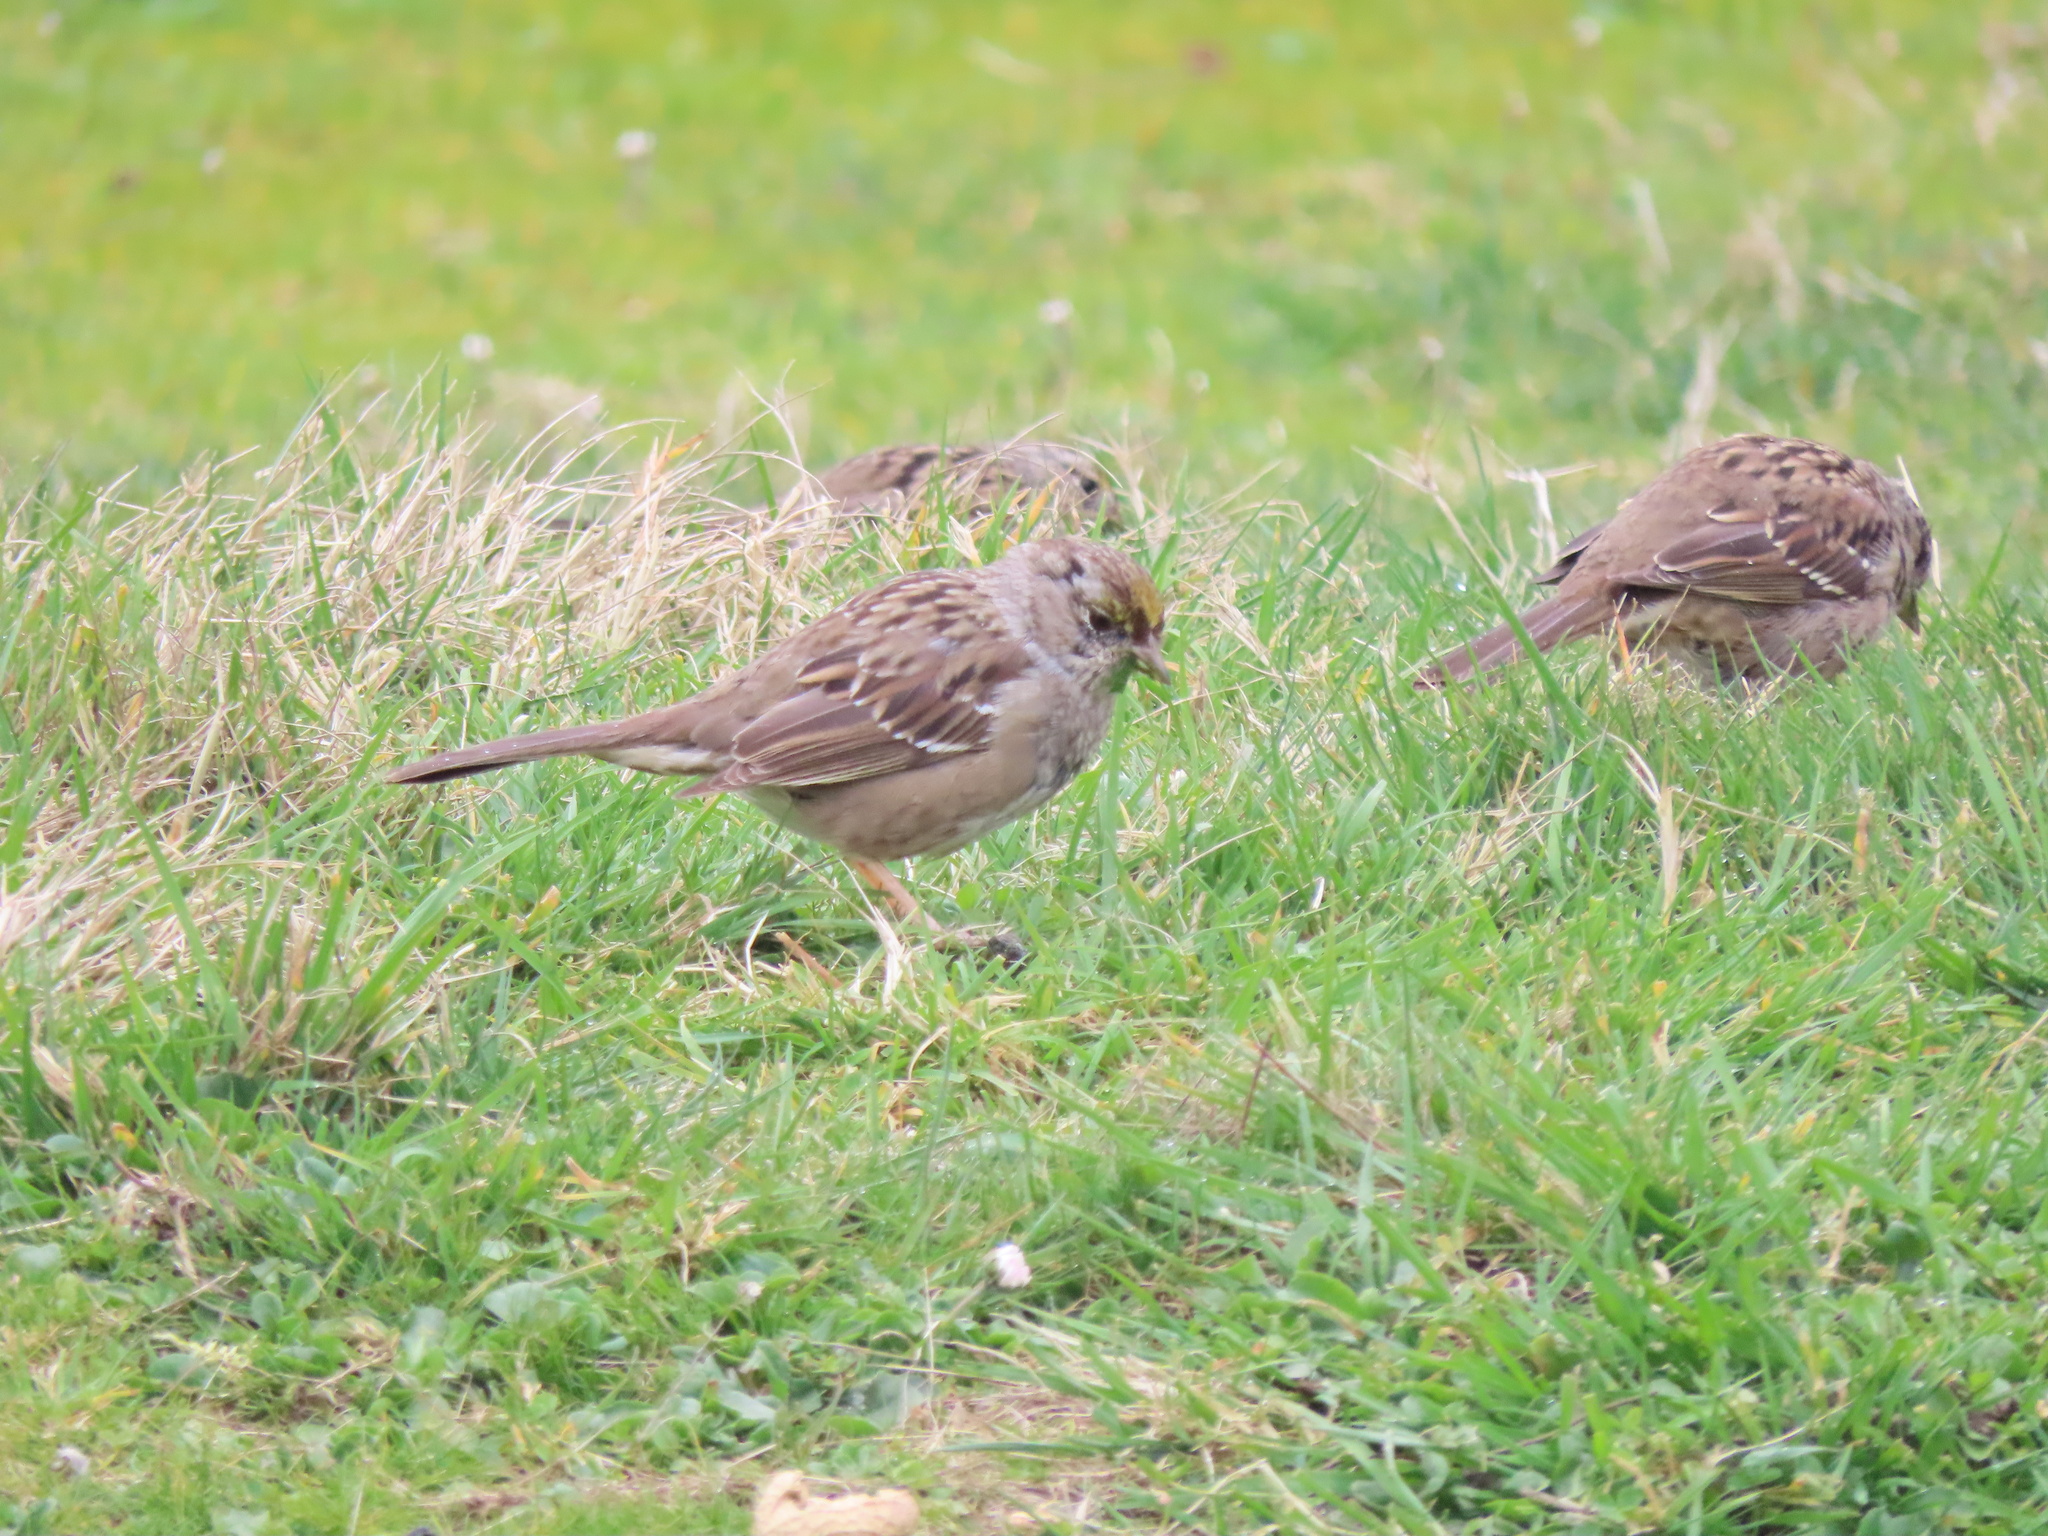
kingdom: Animalia
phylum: Chordata
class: Aves
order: Passeriformes
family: Passerellidae
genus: Zonotrichia
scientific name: Zonotrichia atricapilla
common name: Golden-crowned sparrow
